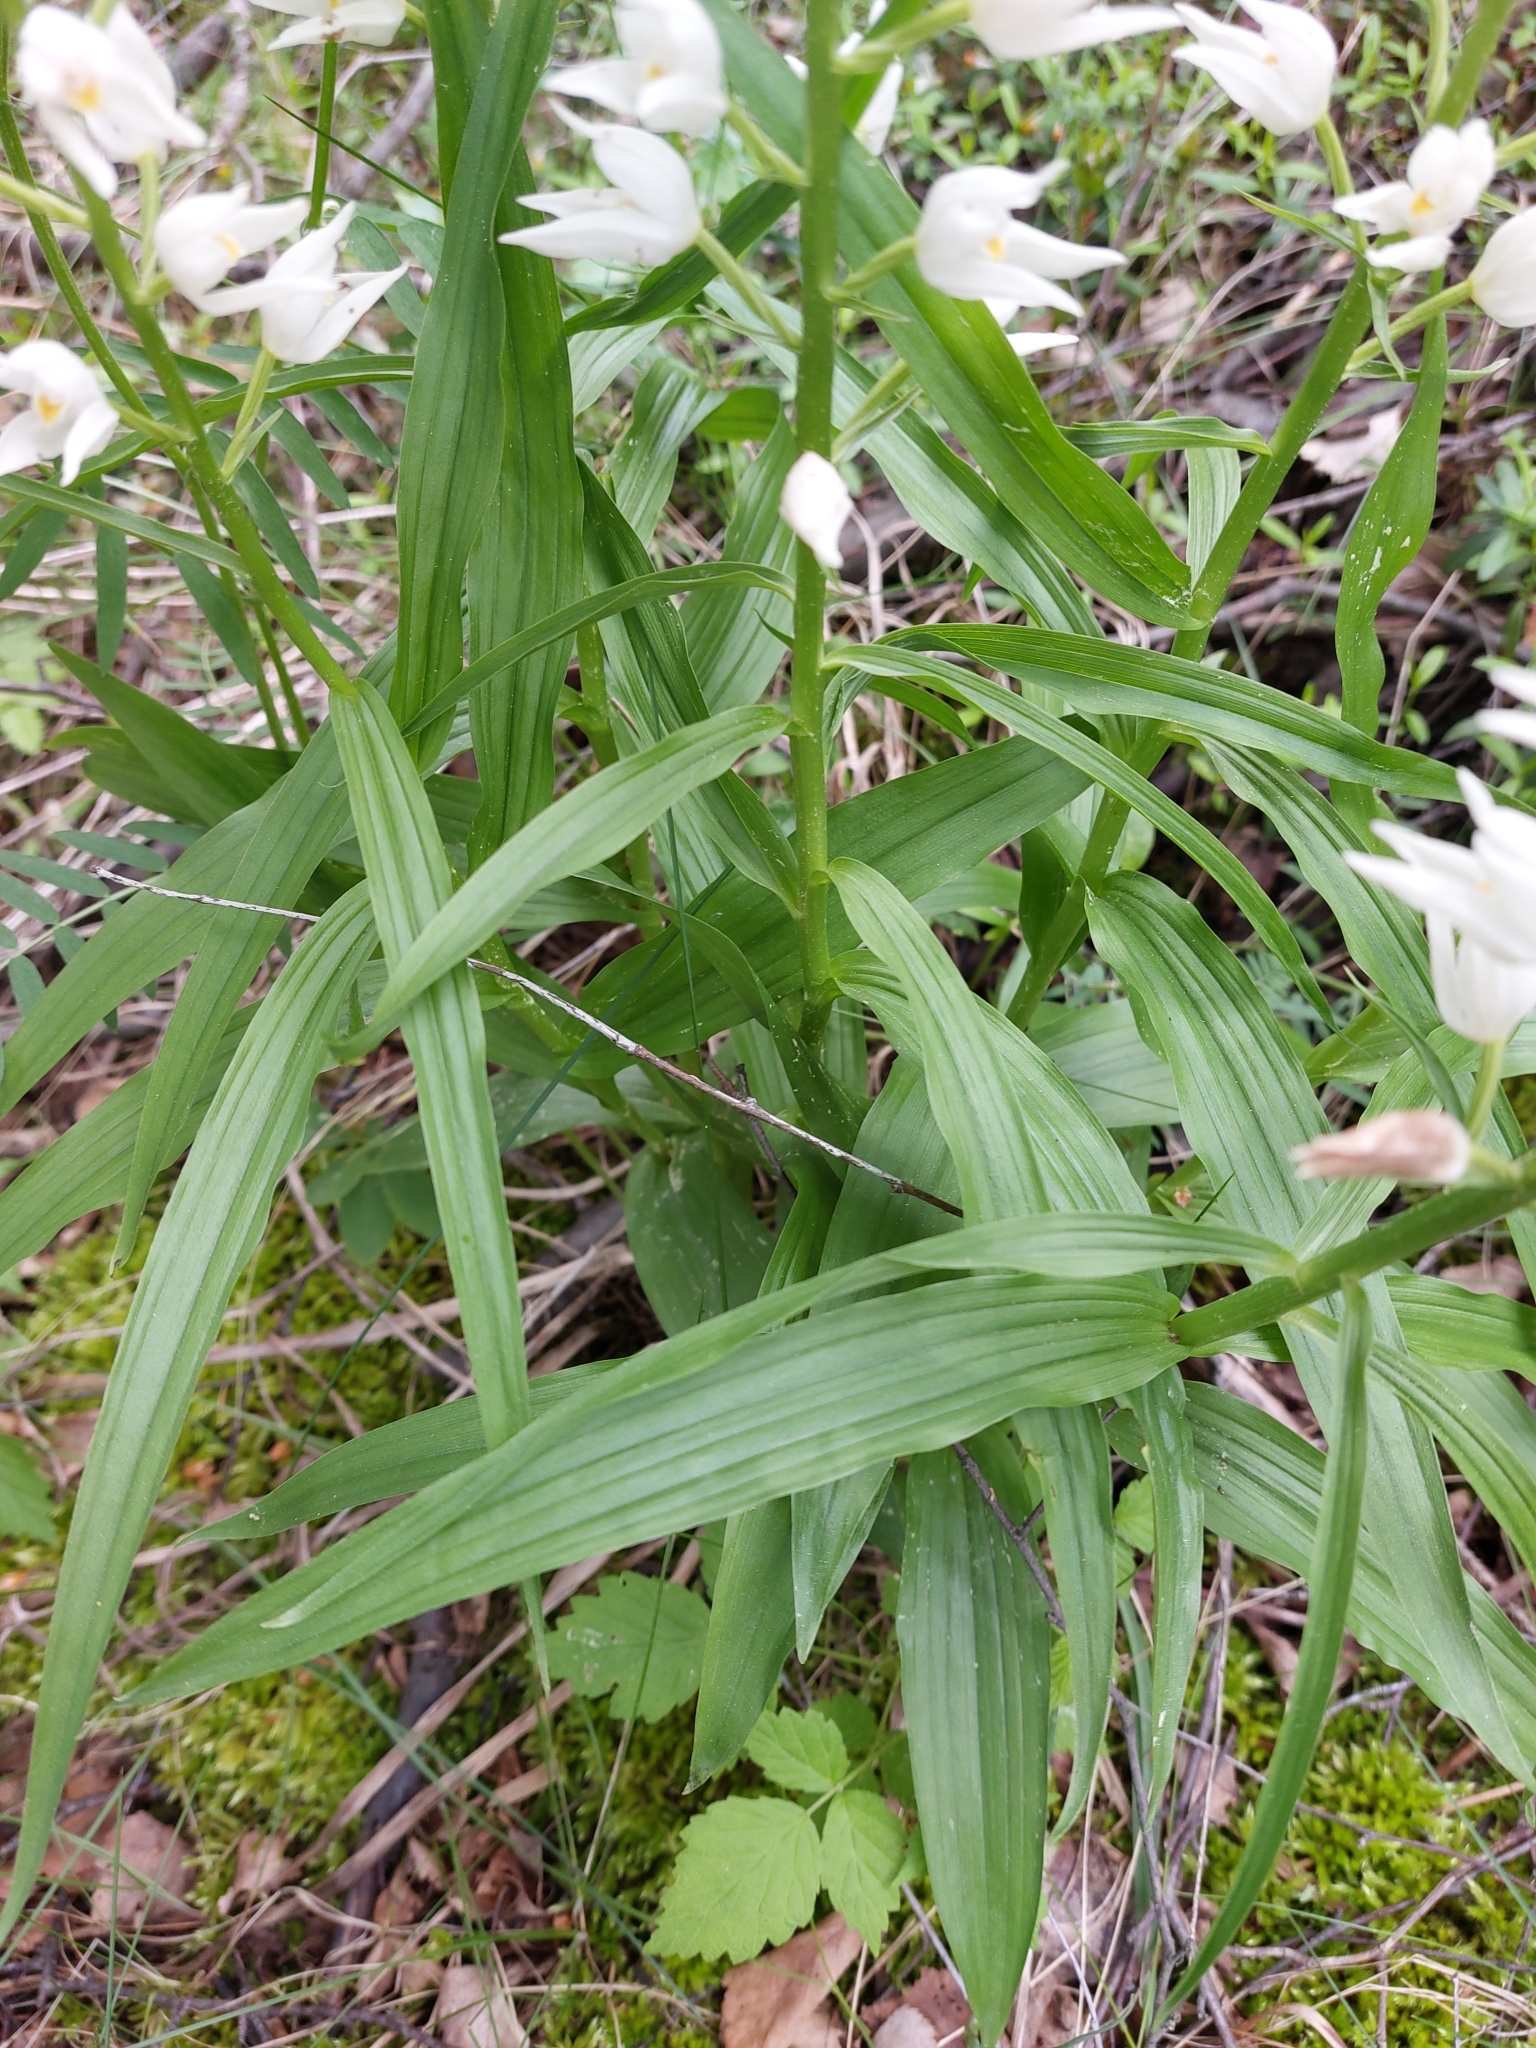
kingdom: Plantae
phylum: Tracheophyta
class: Liliopsida
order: Asparagales
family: Orchidaceae
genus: Cephalanthera
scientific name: Cephalanthera longifolia
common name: Narrow-leaved helleborine
